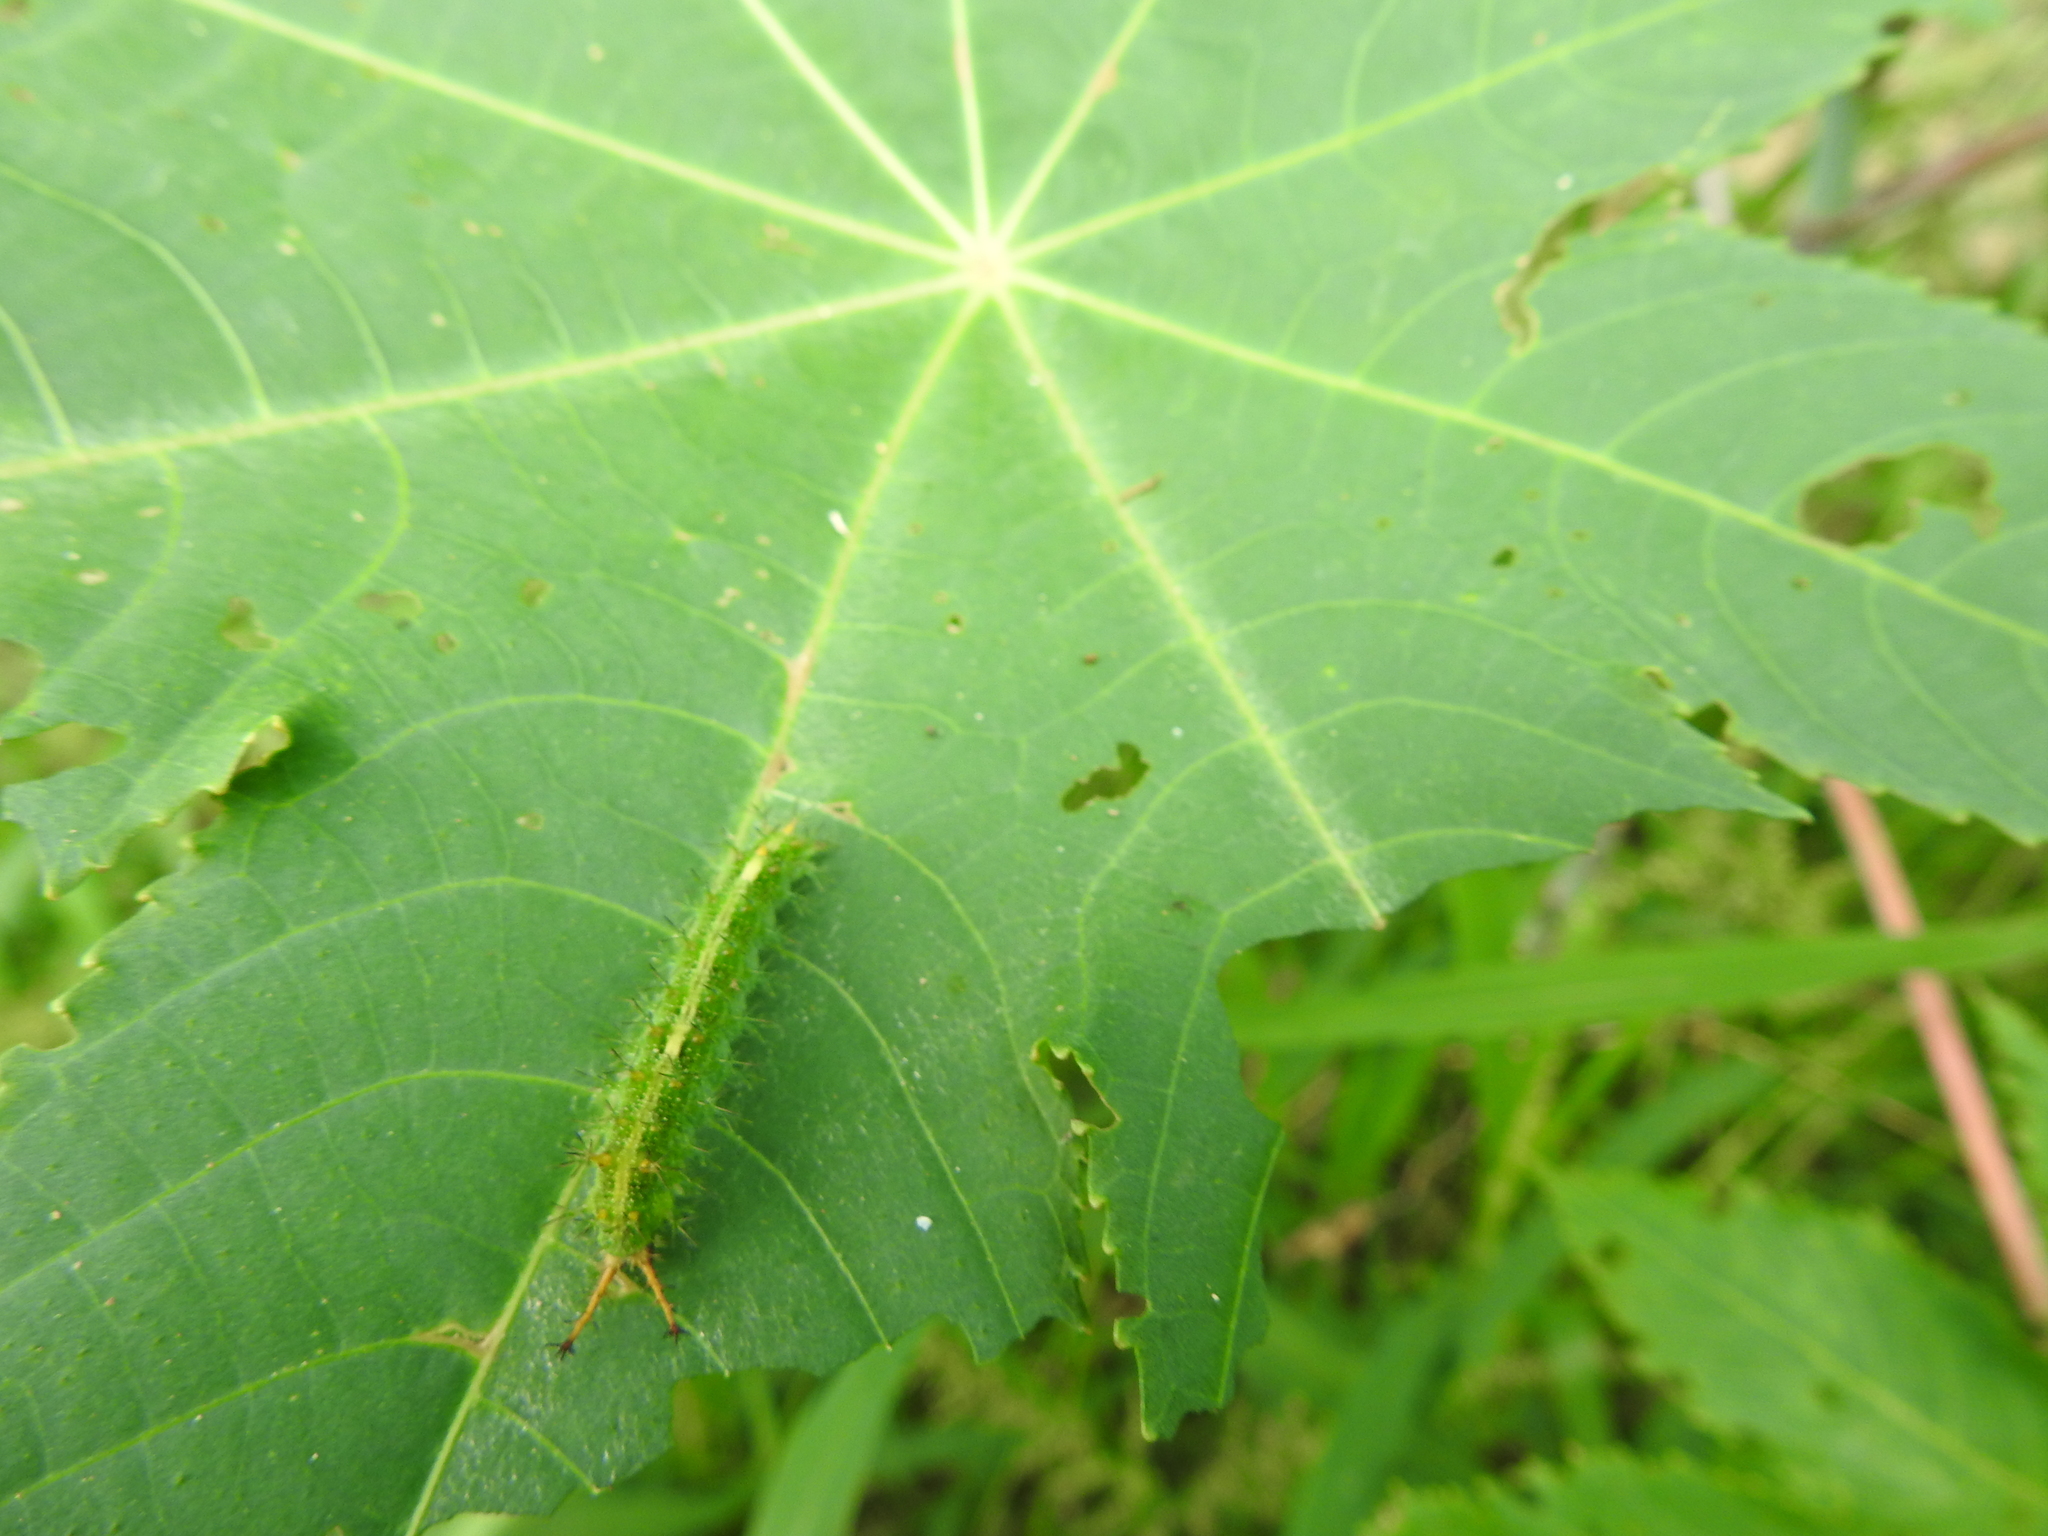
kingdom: Animalia
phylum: Arthropoda
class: Insecta
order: Lepidoptera
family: Nymphalidae
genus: Ariadne
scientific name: Ariadne merione
